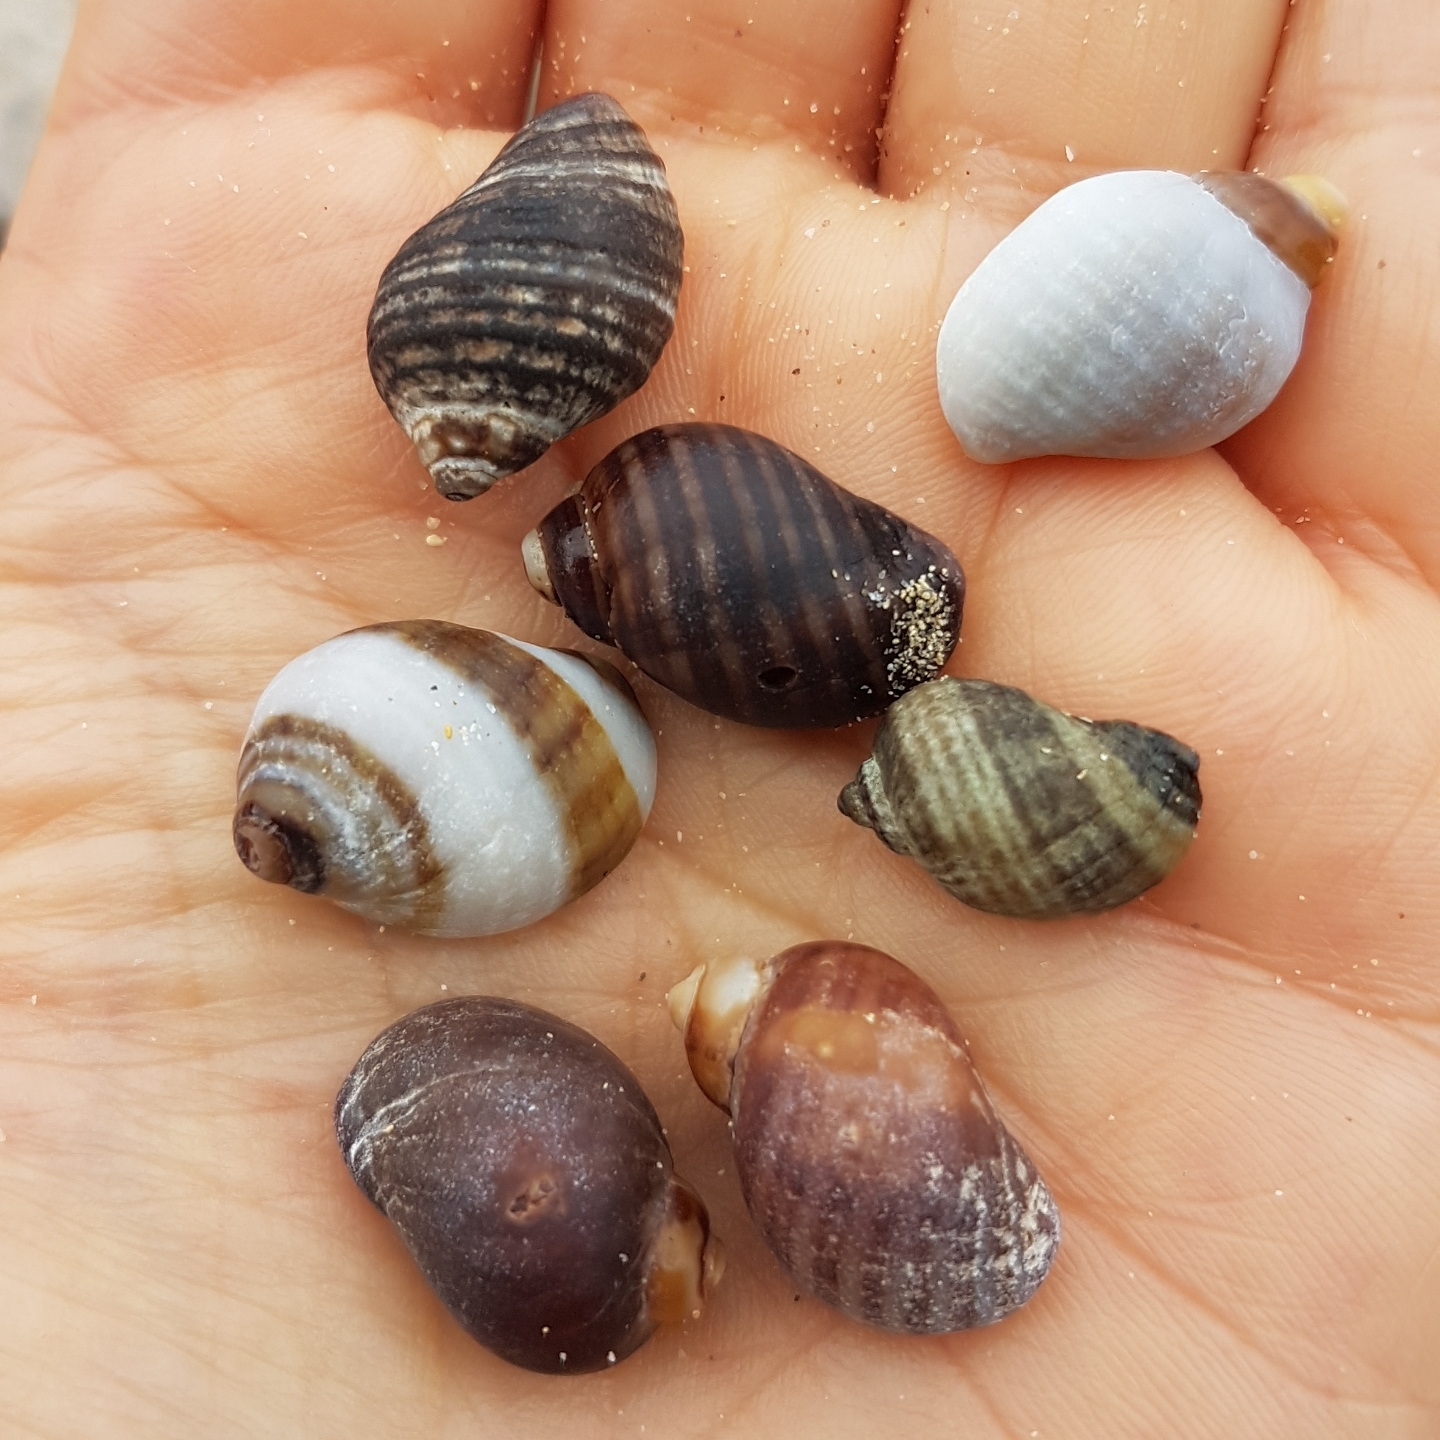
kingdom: Animalia
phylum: Mollusca
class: Gastropoda
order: Neogastropoda
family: Muricidae
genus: Nucella
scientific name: Nucella lapillus
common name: Dog whelk
